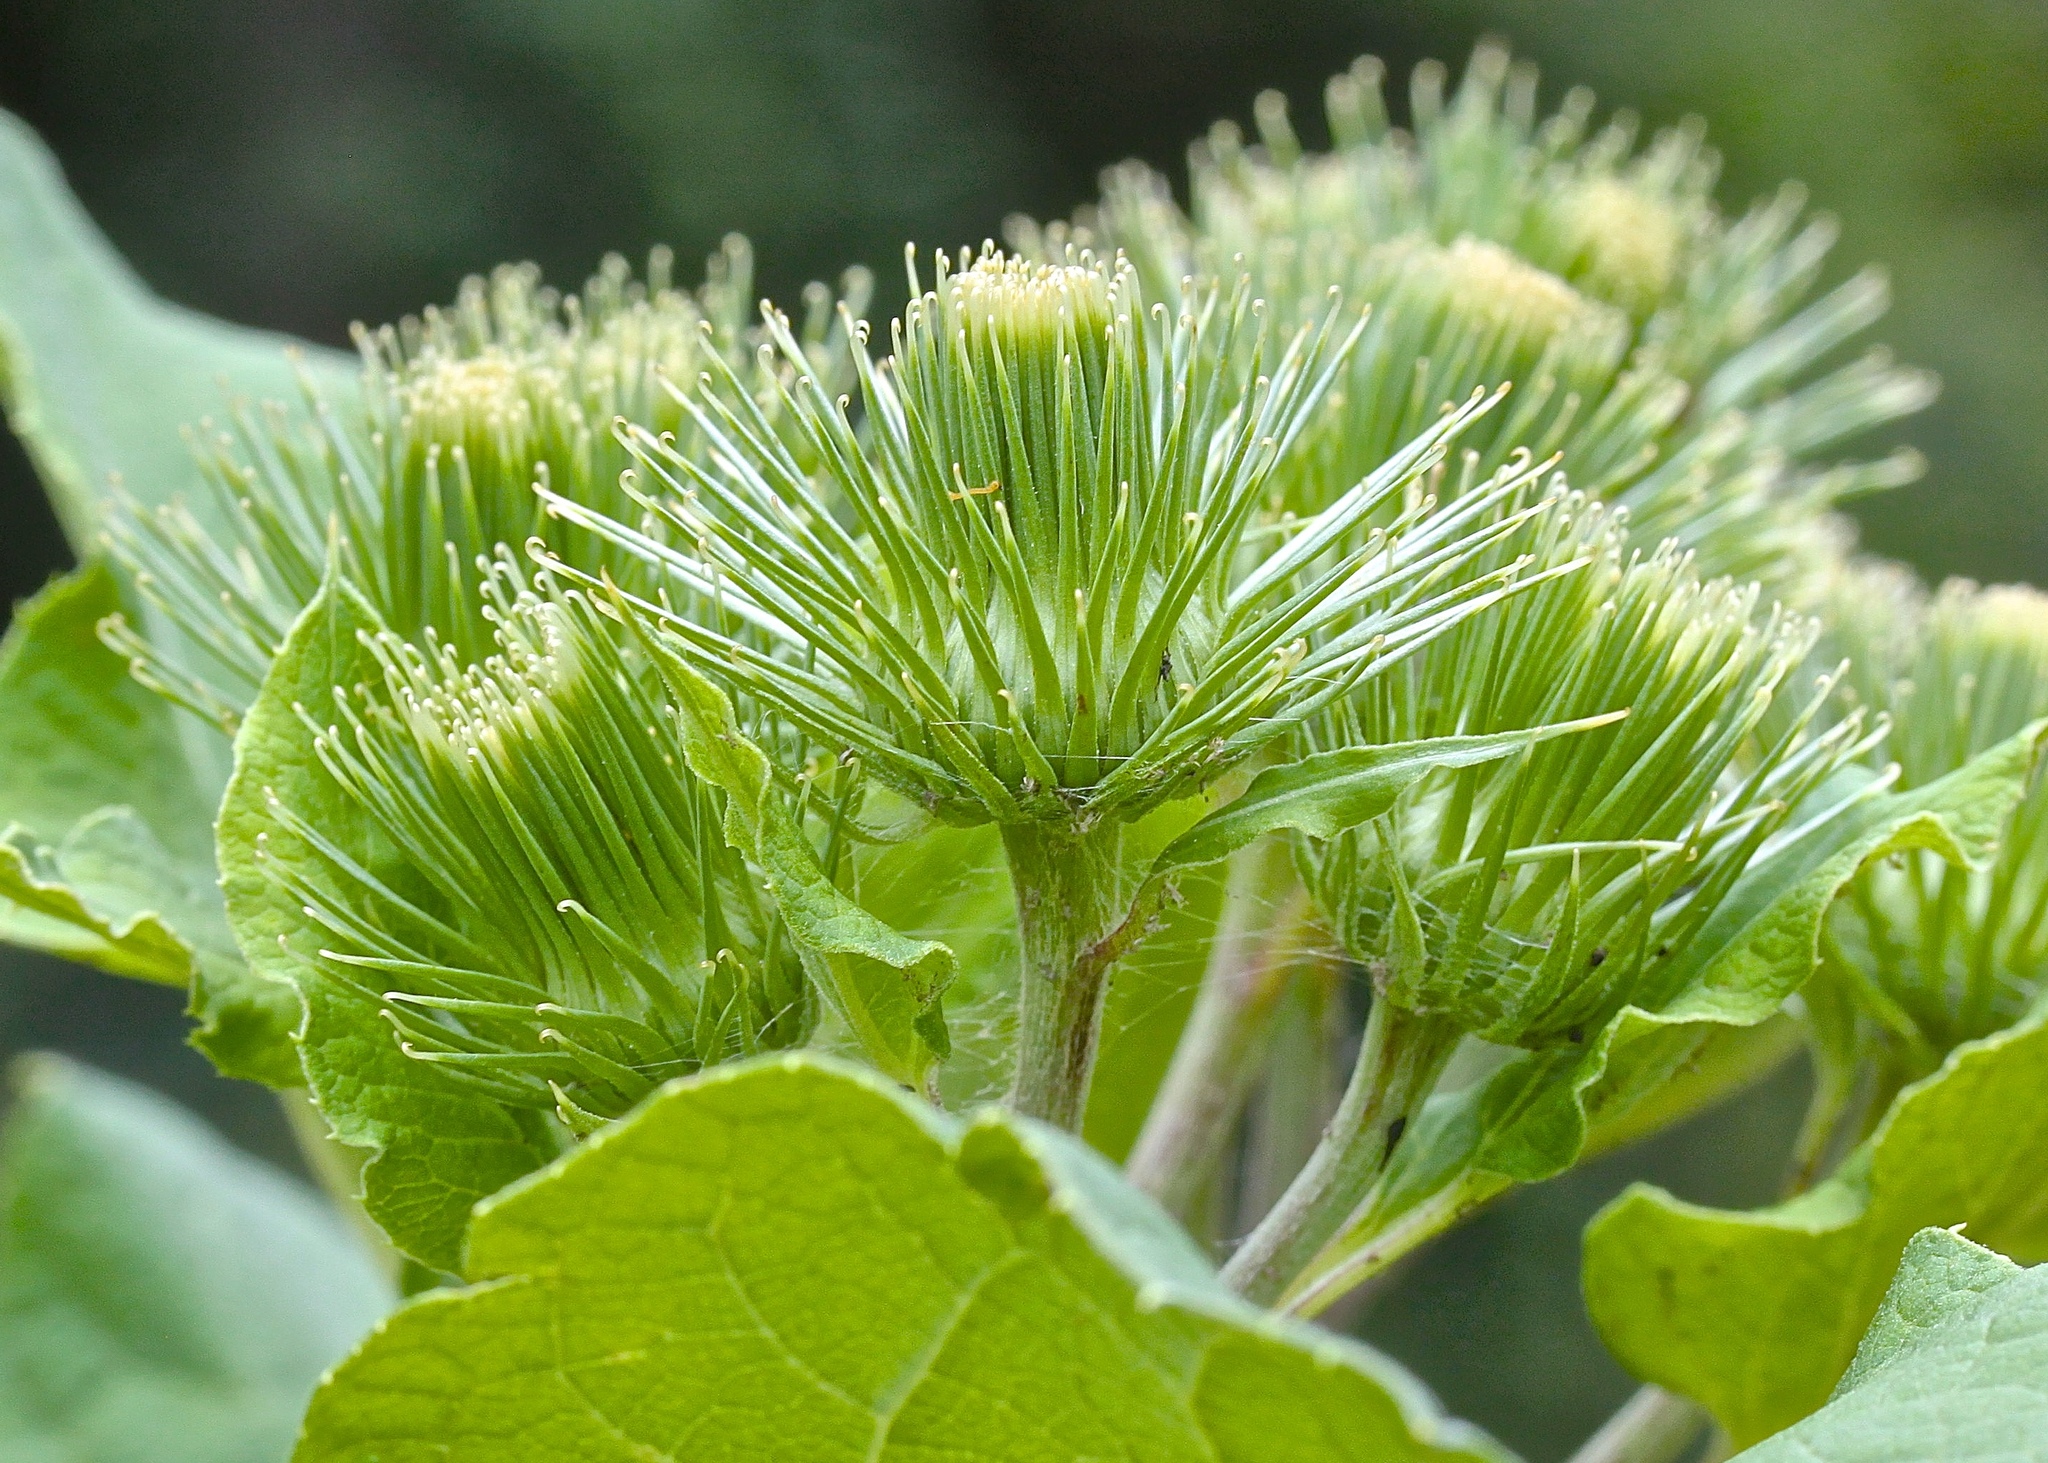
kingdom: Plantae
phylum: Tracheophyta
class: Magnoliopsida
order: Asterales
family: Asteraceae
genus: Arctium
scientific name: Arctium lappa
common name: Greater burdock
